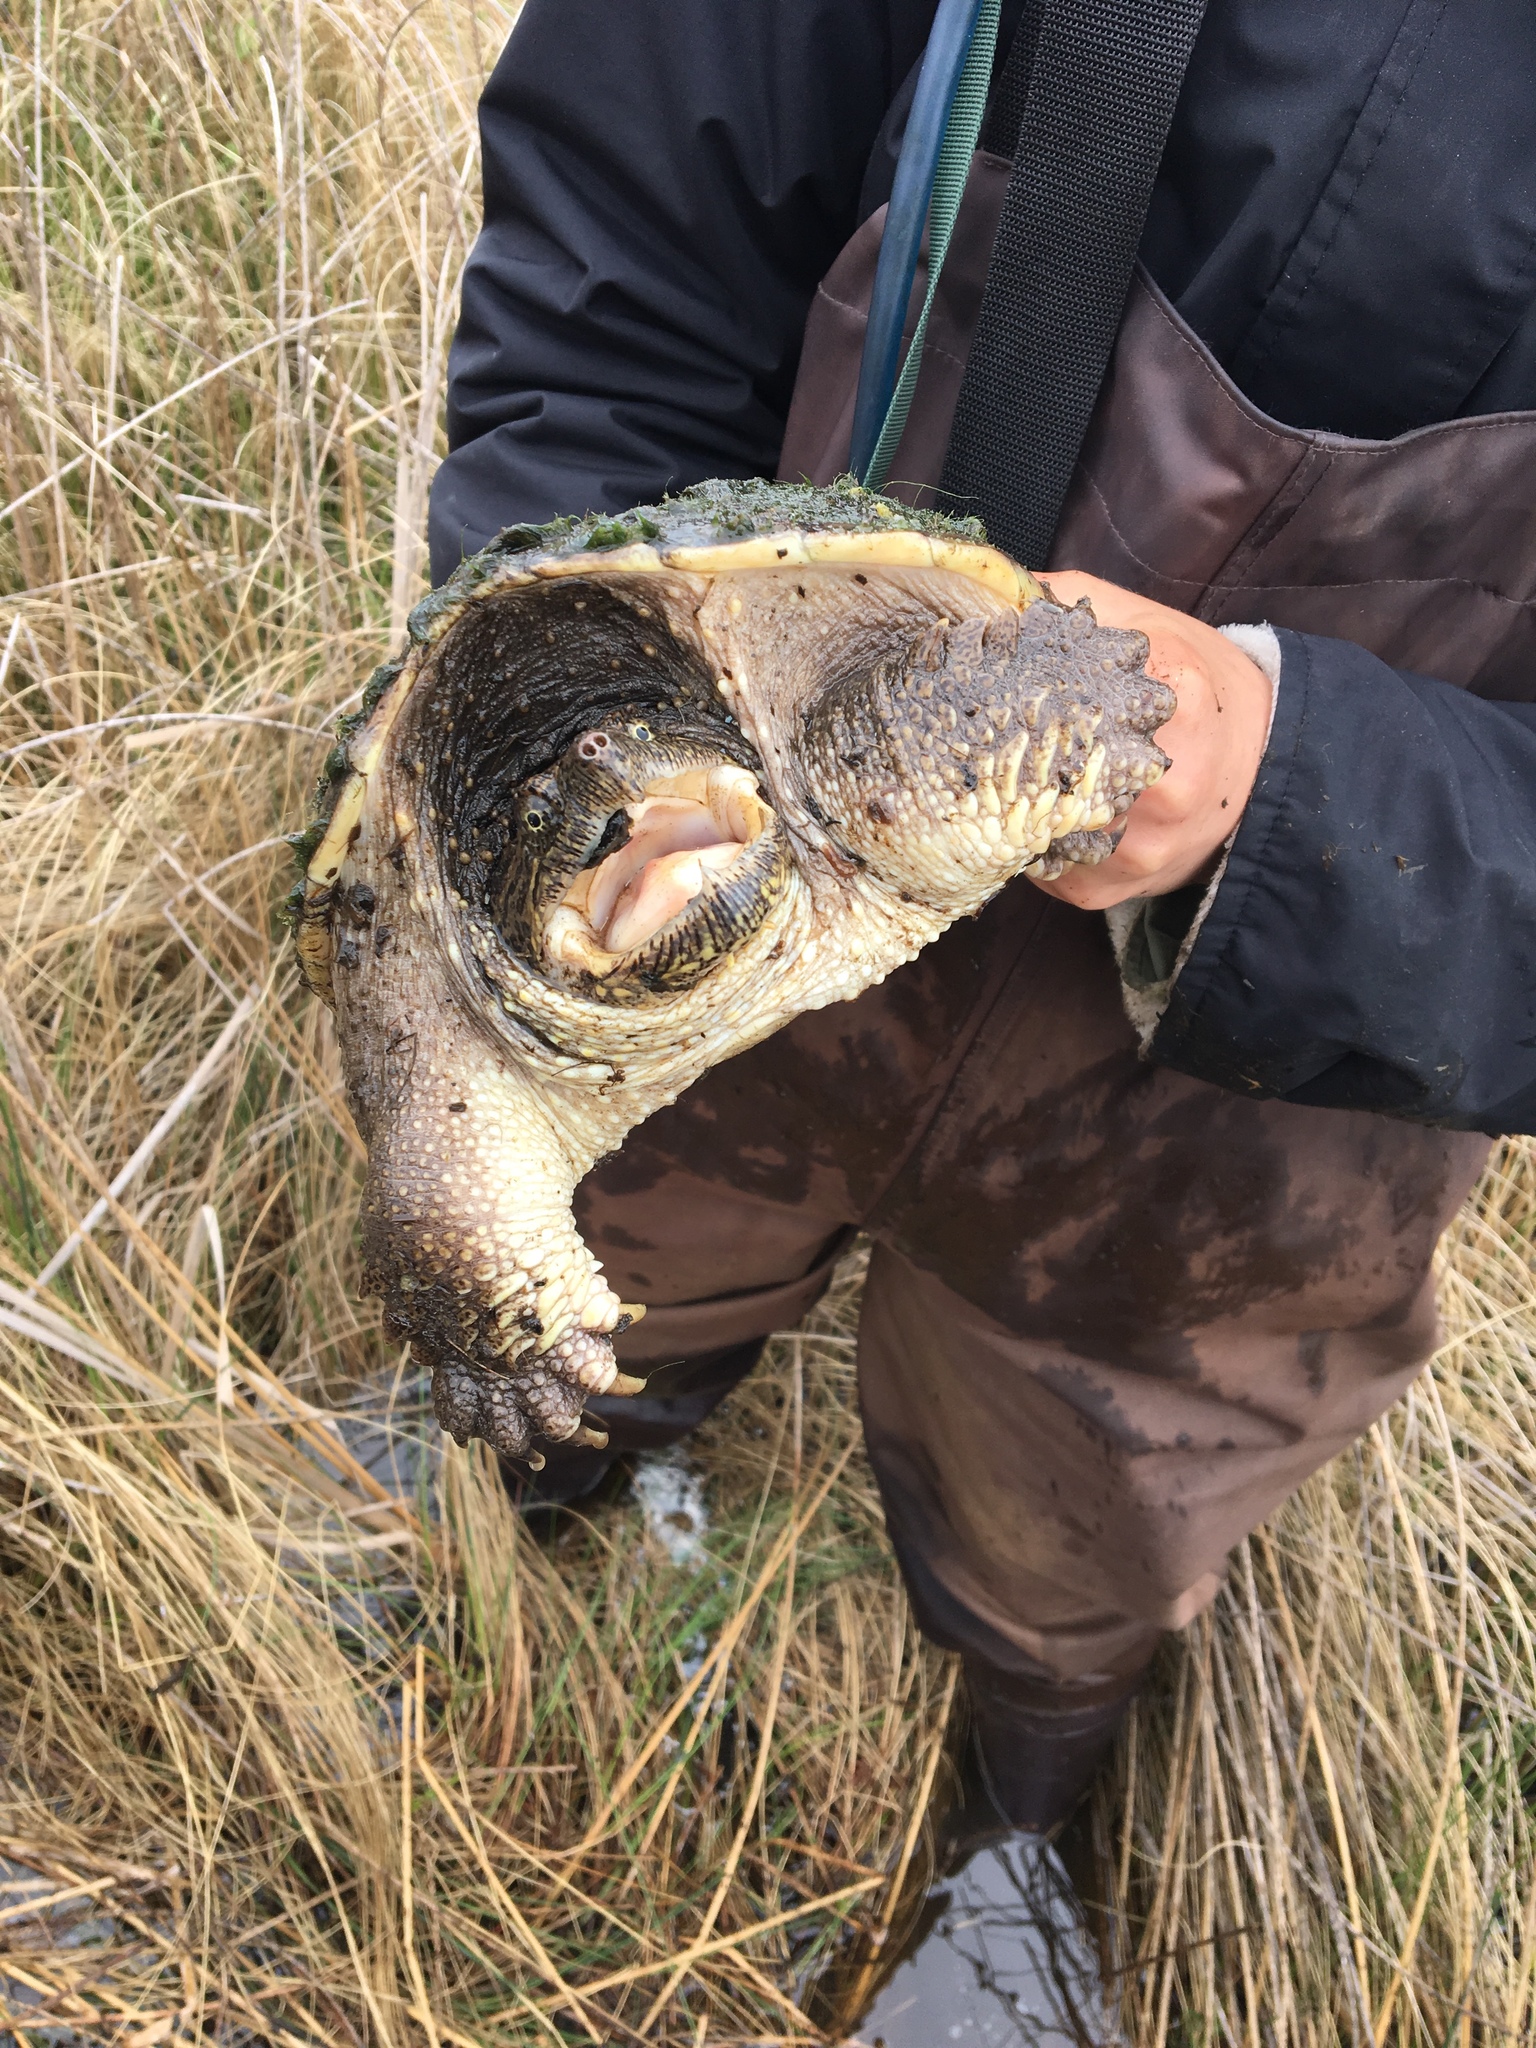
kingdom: Animalia
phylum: Chordata
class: Testudines
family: Chelydridae
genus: Chelydra
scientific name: Chelydra serpentina
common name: Common snapping turtle
